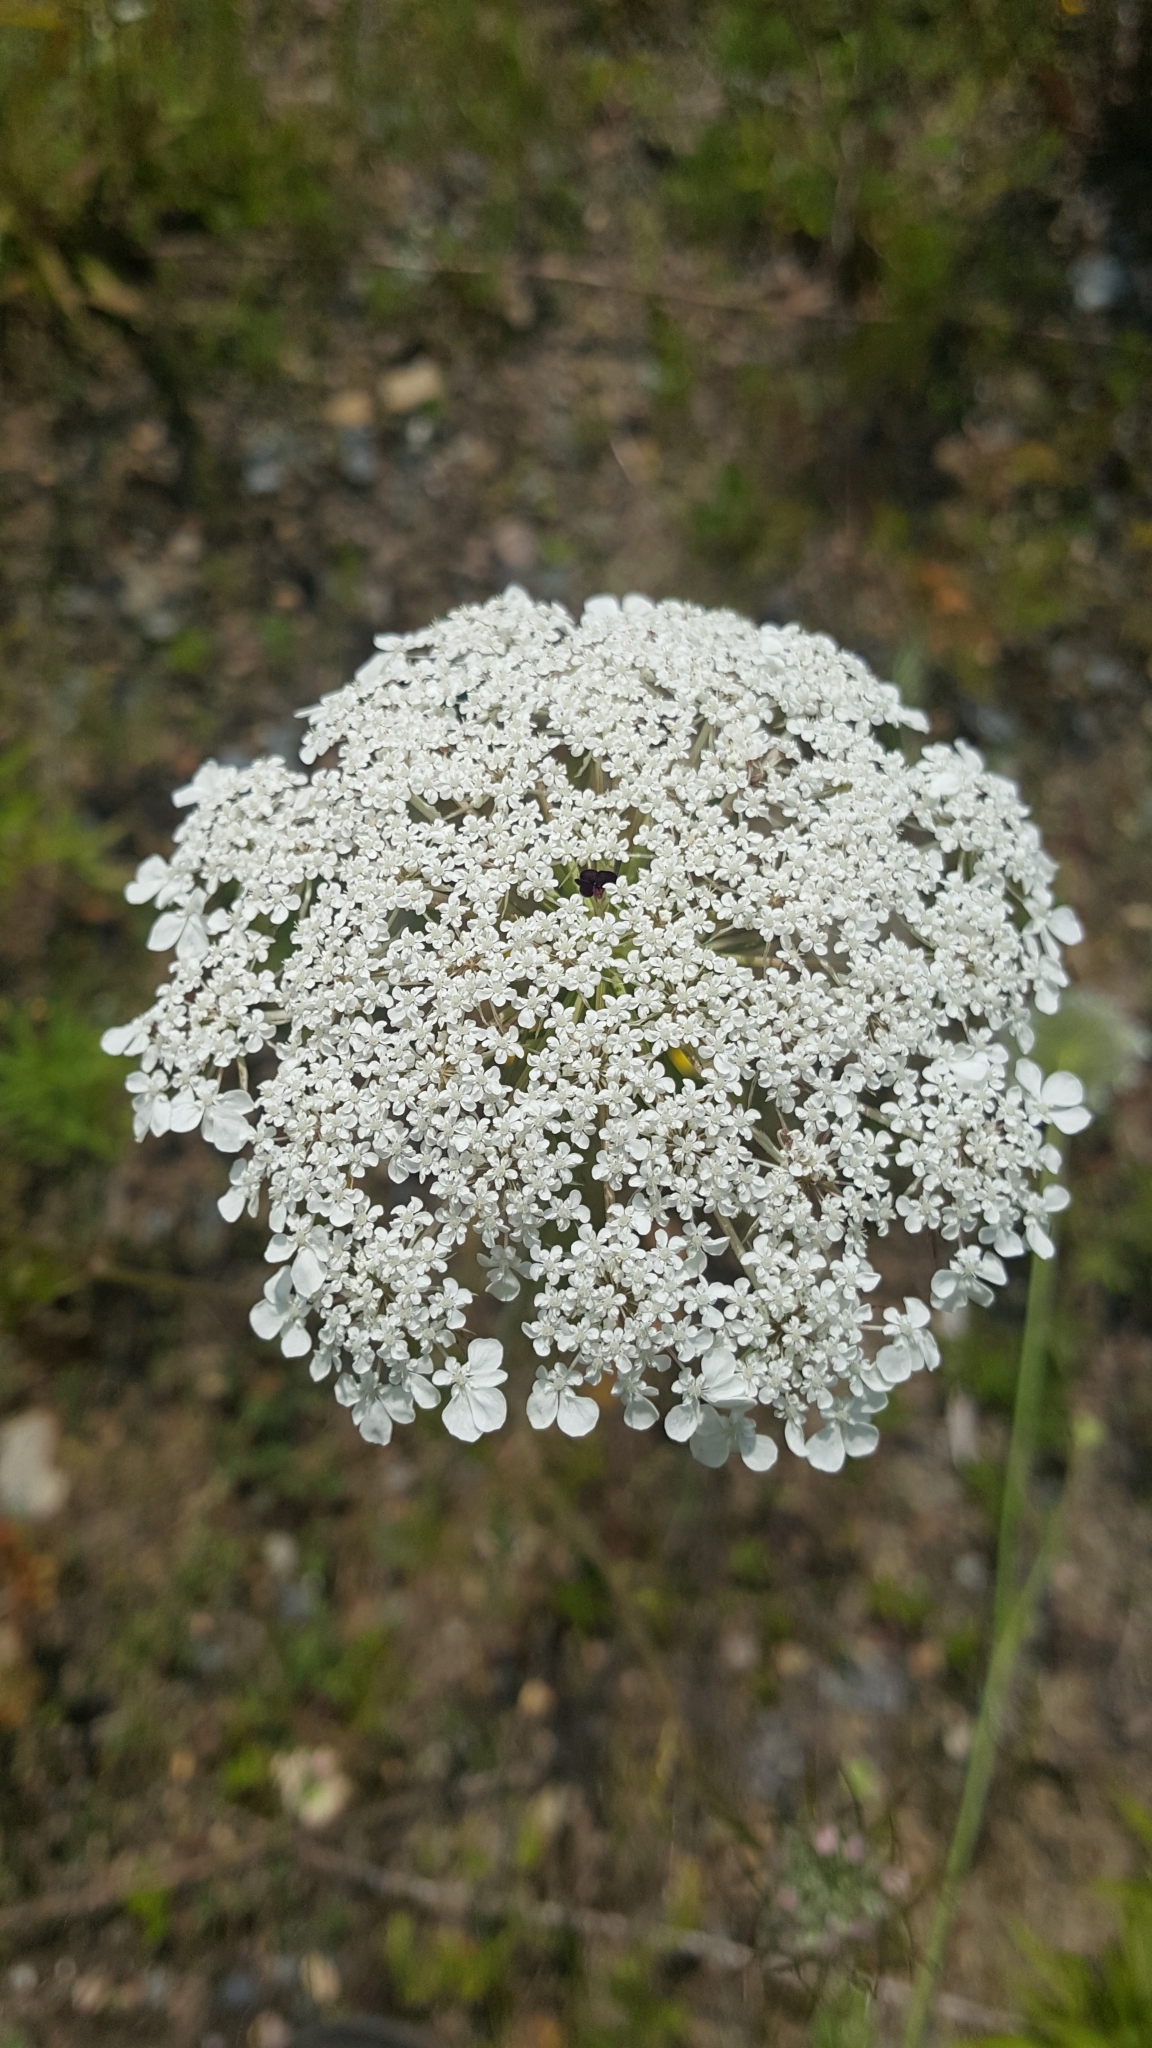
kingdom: Plantae
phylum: Tracheophyta
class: Magnoliopsida
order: Apiales
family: Apiaceae
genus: Daucus
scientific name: Daucus carota
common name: Wild carrot
